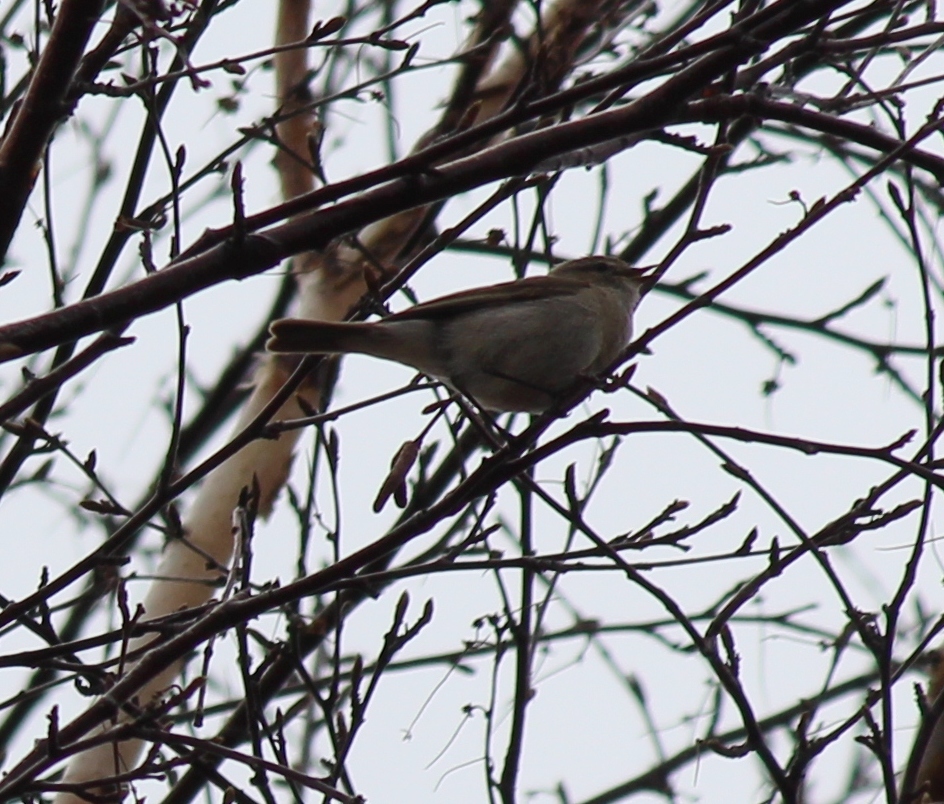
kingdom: Animalia
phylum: Chordata
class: Aves
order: Passeriformes
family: Phylloscopidae
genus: Phylloscopus
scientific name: Phylloscopus collybita
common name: Common chiffchaff
